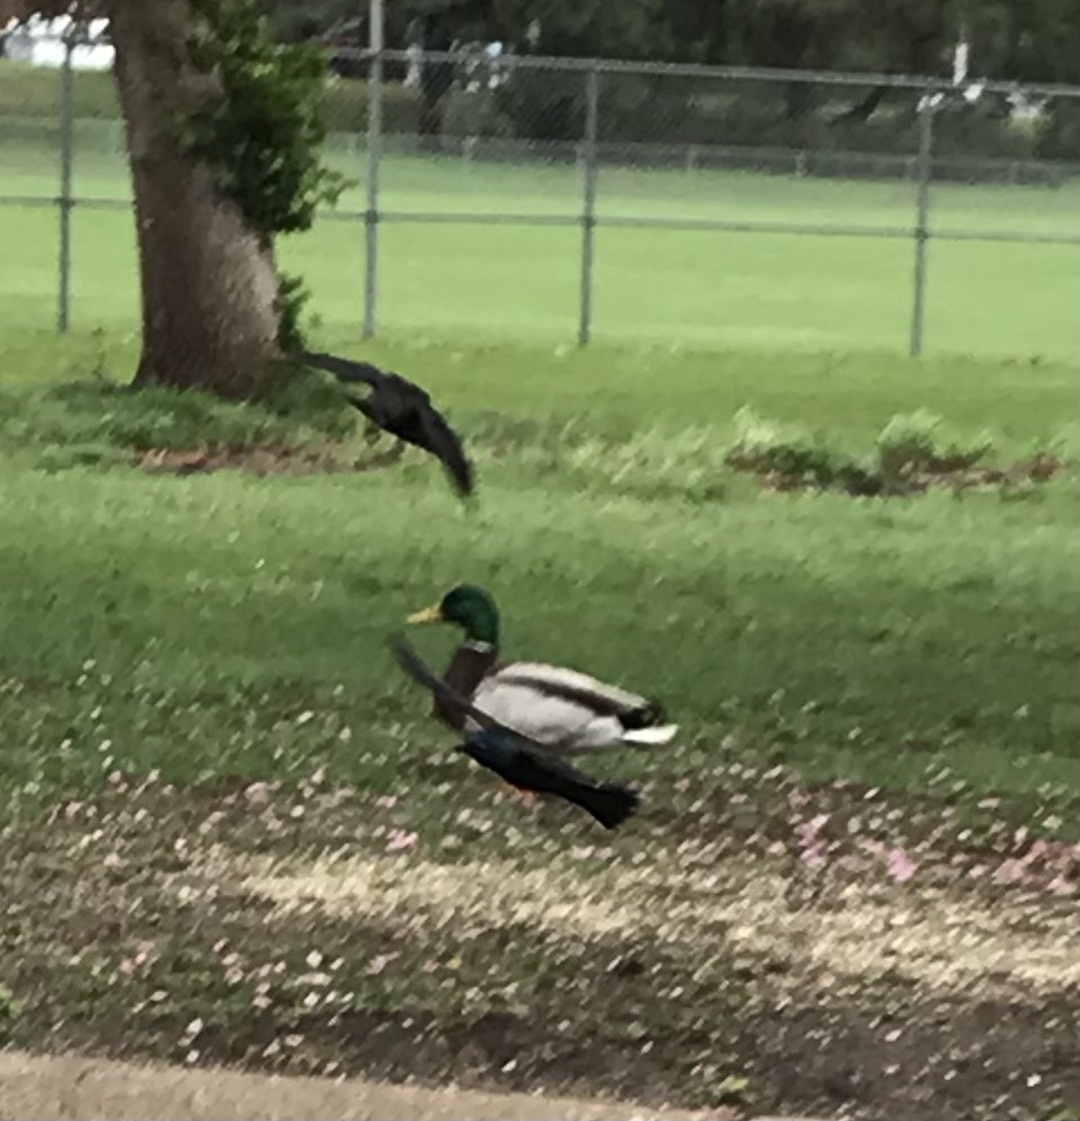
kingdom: Animalia
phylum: Chordata
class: Aves
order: Anseriformes
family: Anatidae
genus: Anas
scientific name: Anas platyrhynchos
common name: Mallard
